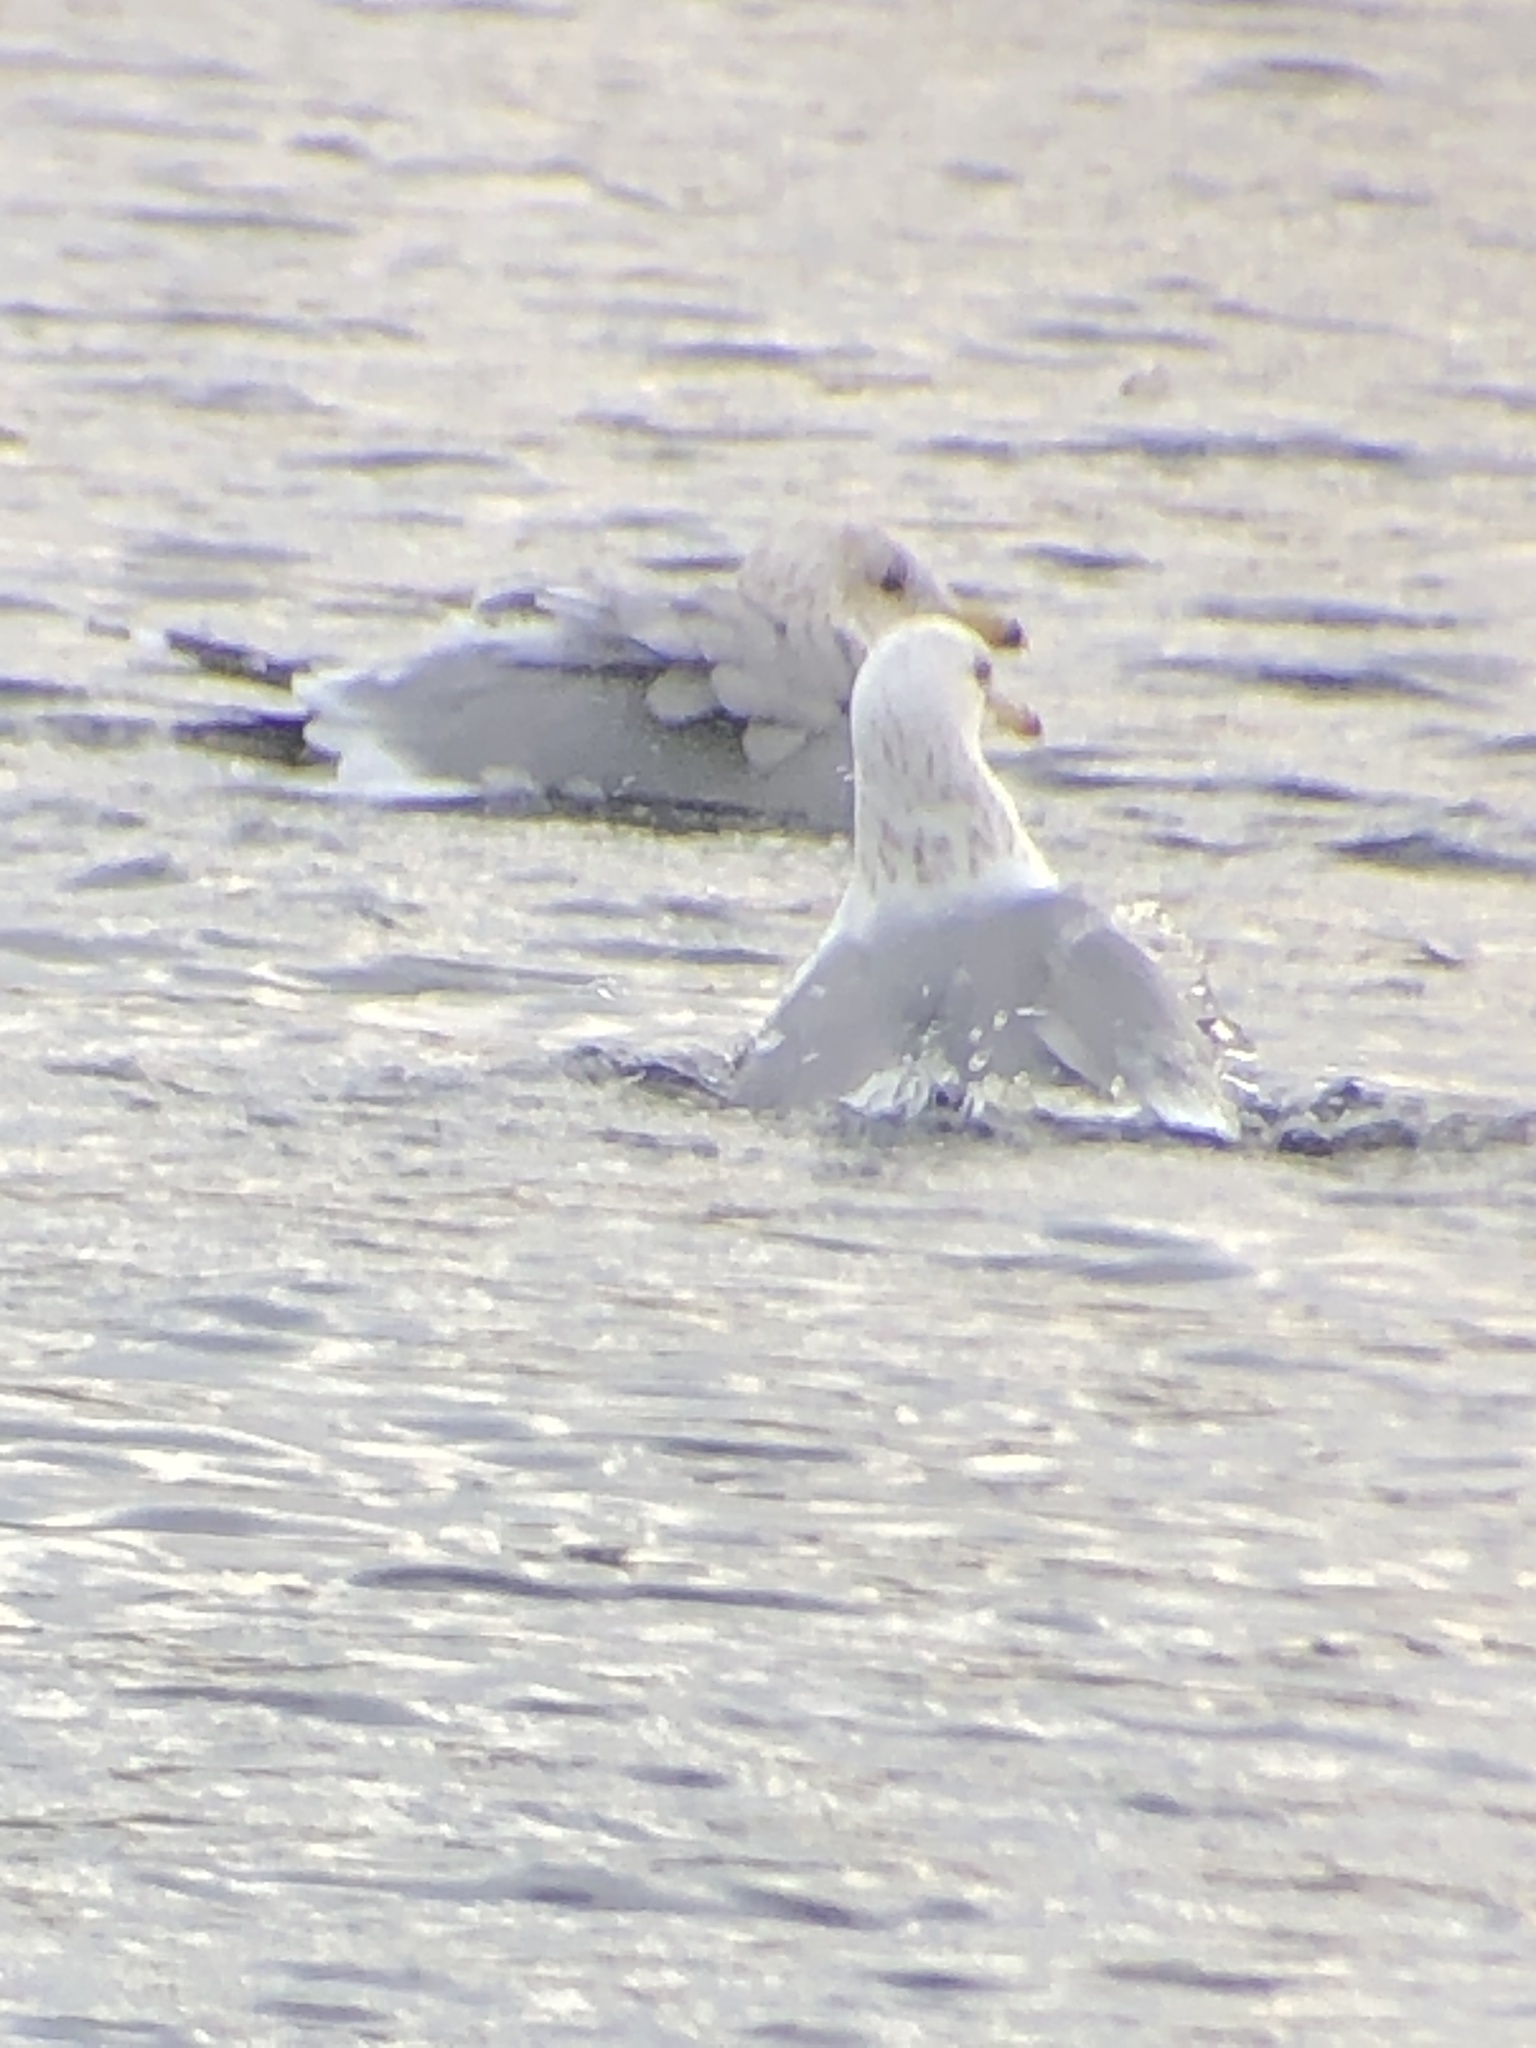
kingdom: Animalia
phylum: Chordata
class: Aves
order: Charadriiformes
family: Laridae
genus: Larus
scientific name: Larus californicus
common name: California gull
